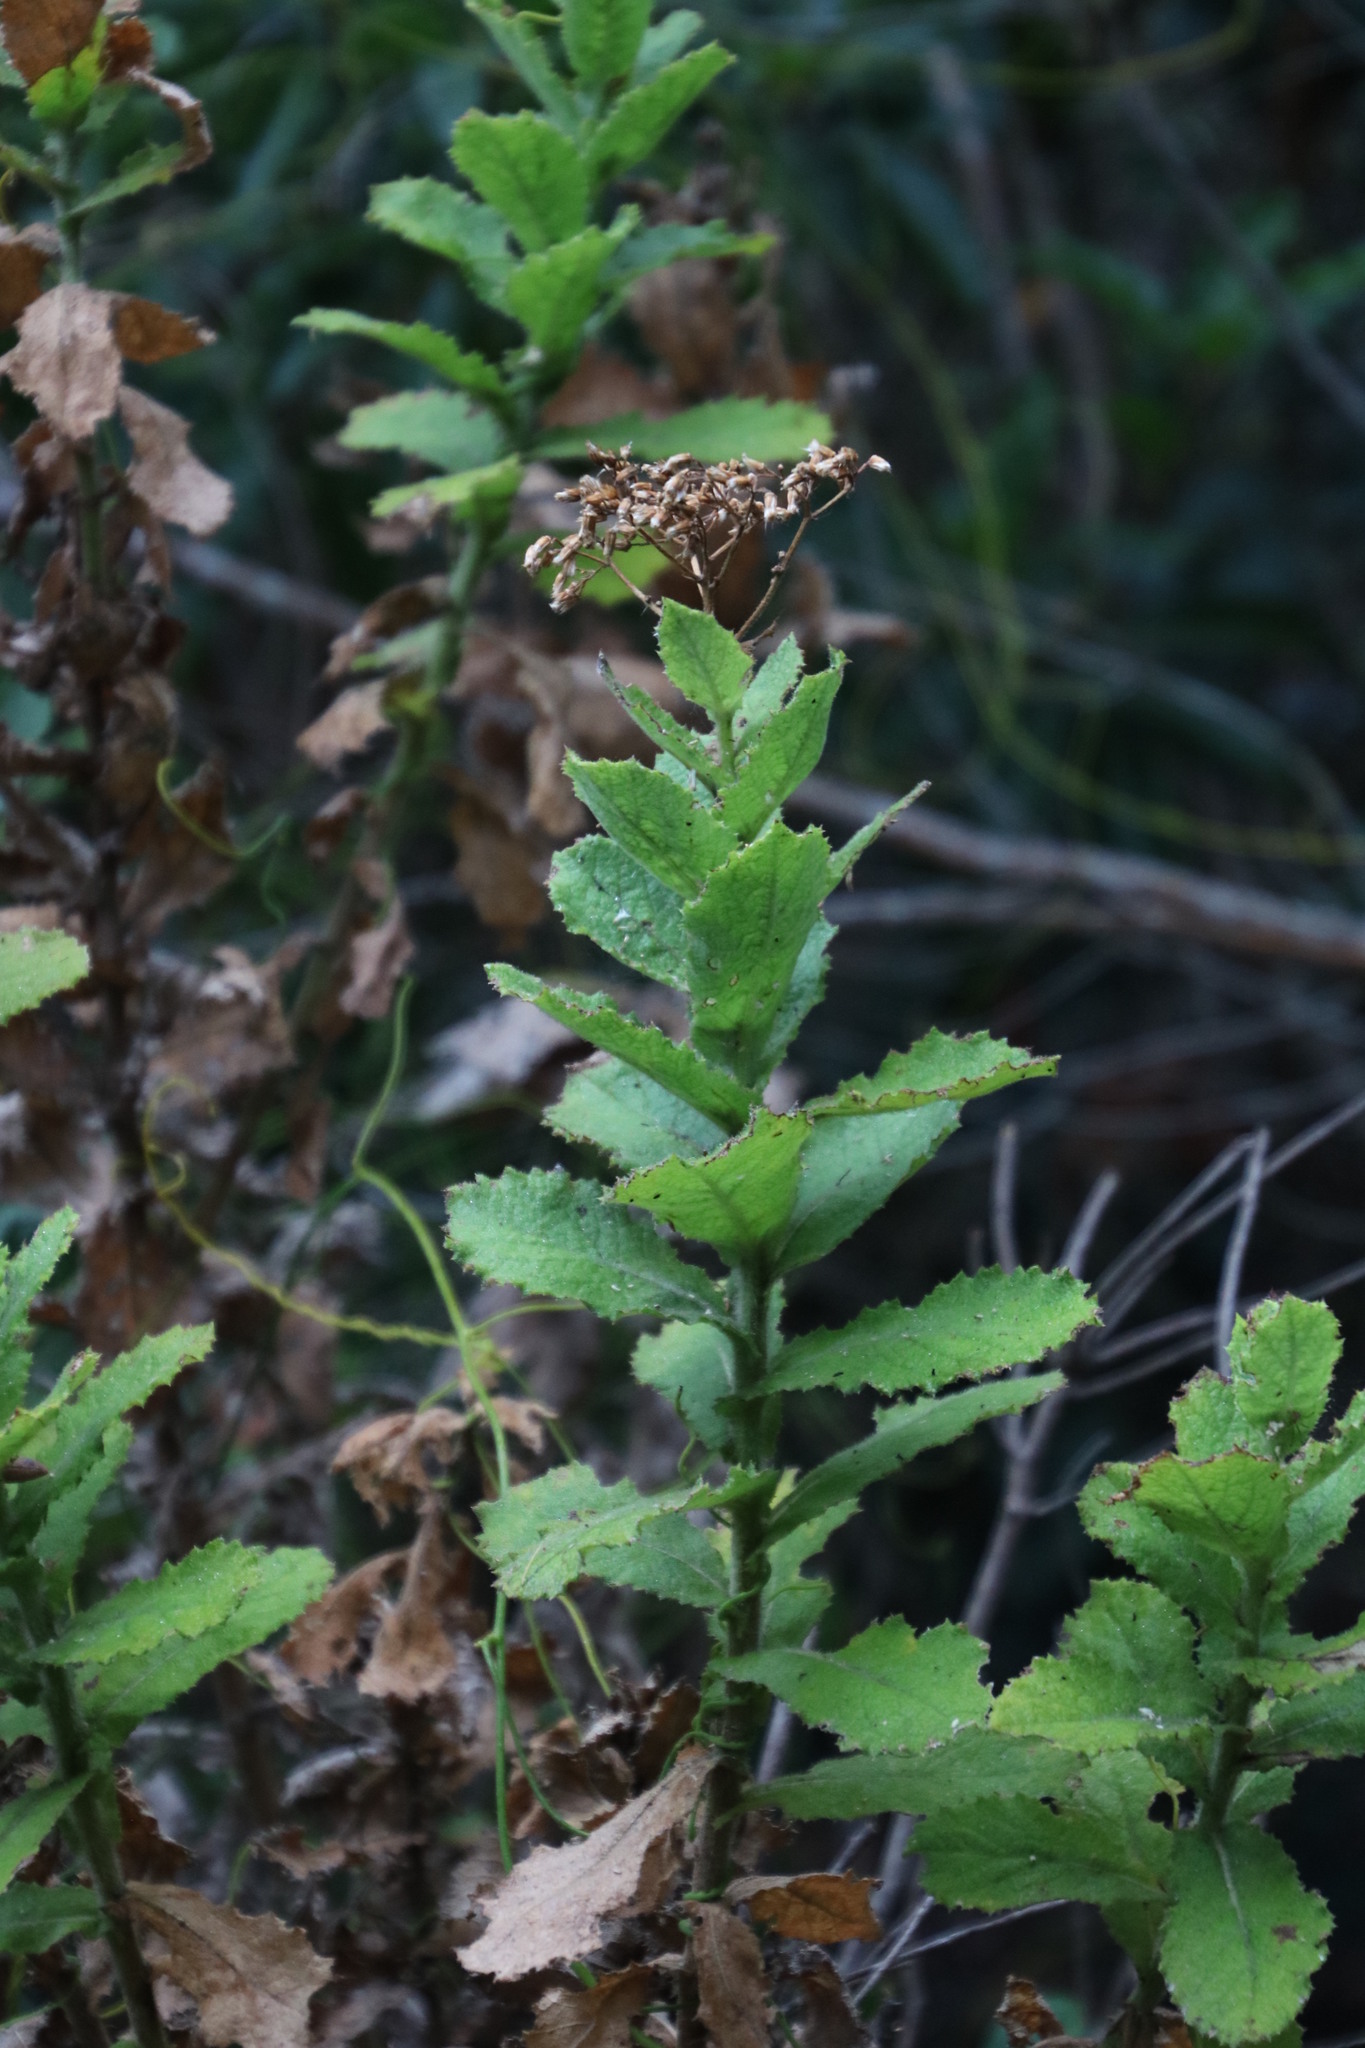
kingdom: Plantae
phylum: Tracheophyta
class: Magnoliopsida
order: Asterales
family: Asteraceae
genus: Senecio
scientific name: Senecio rigidus
